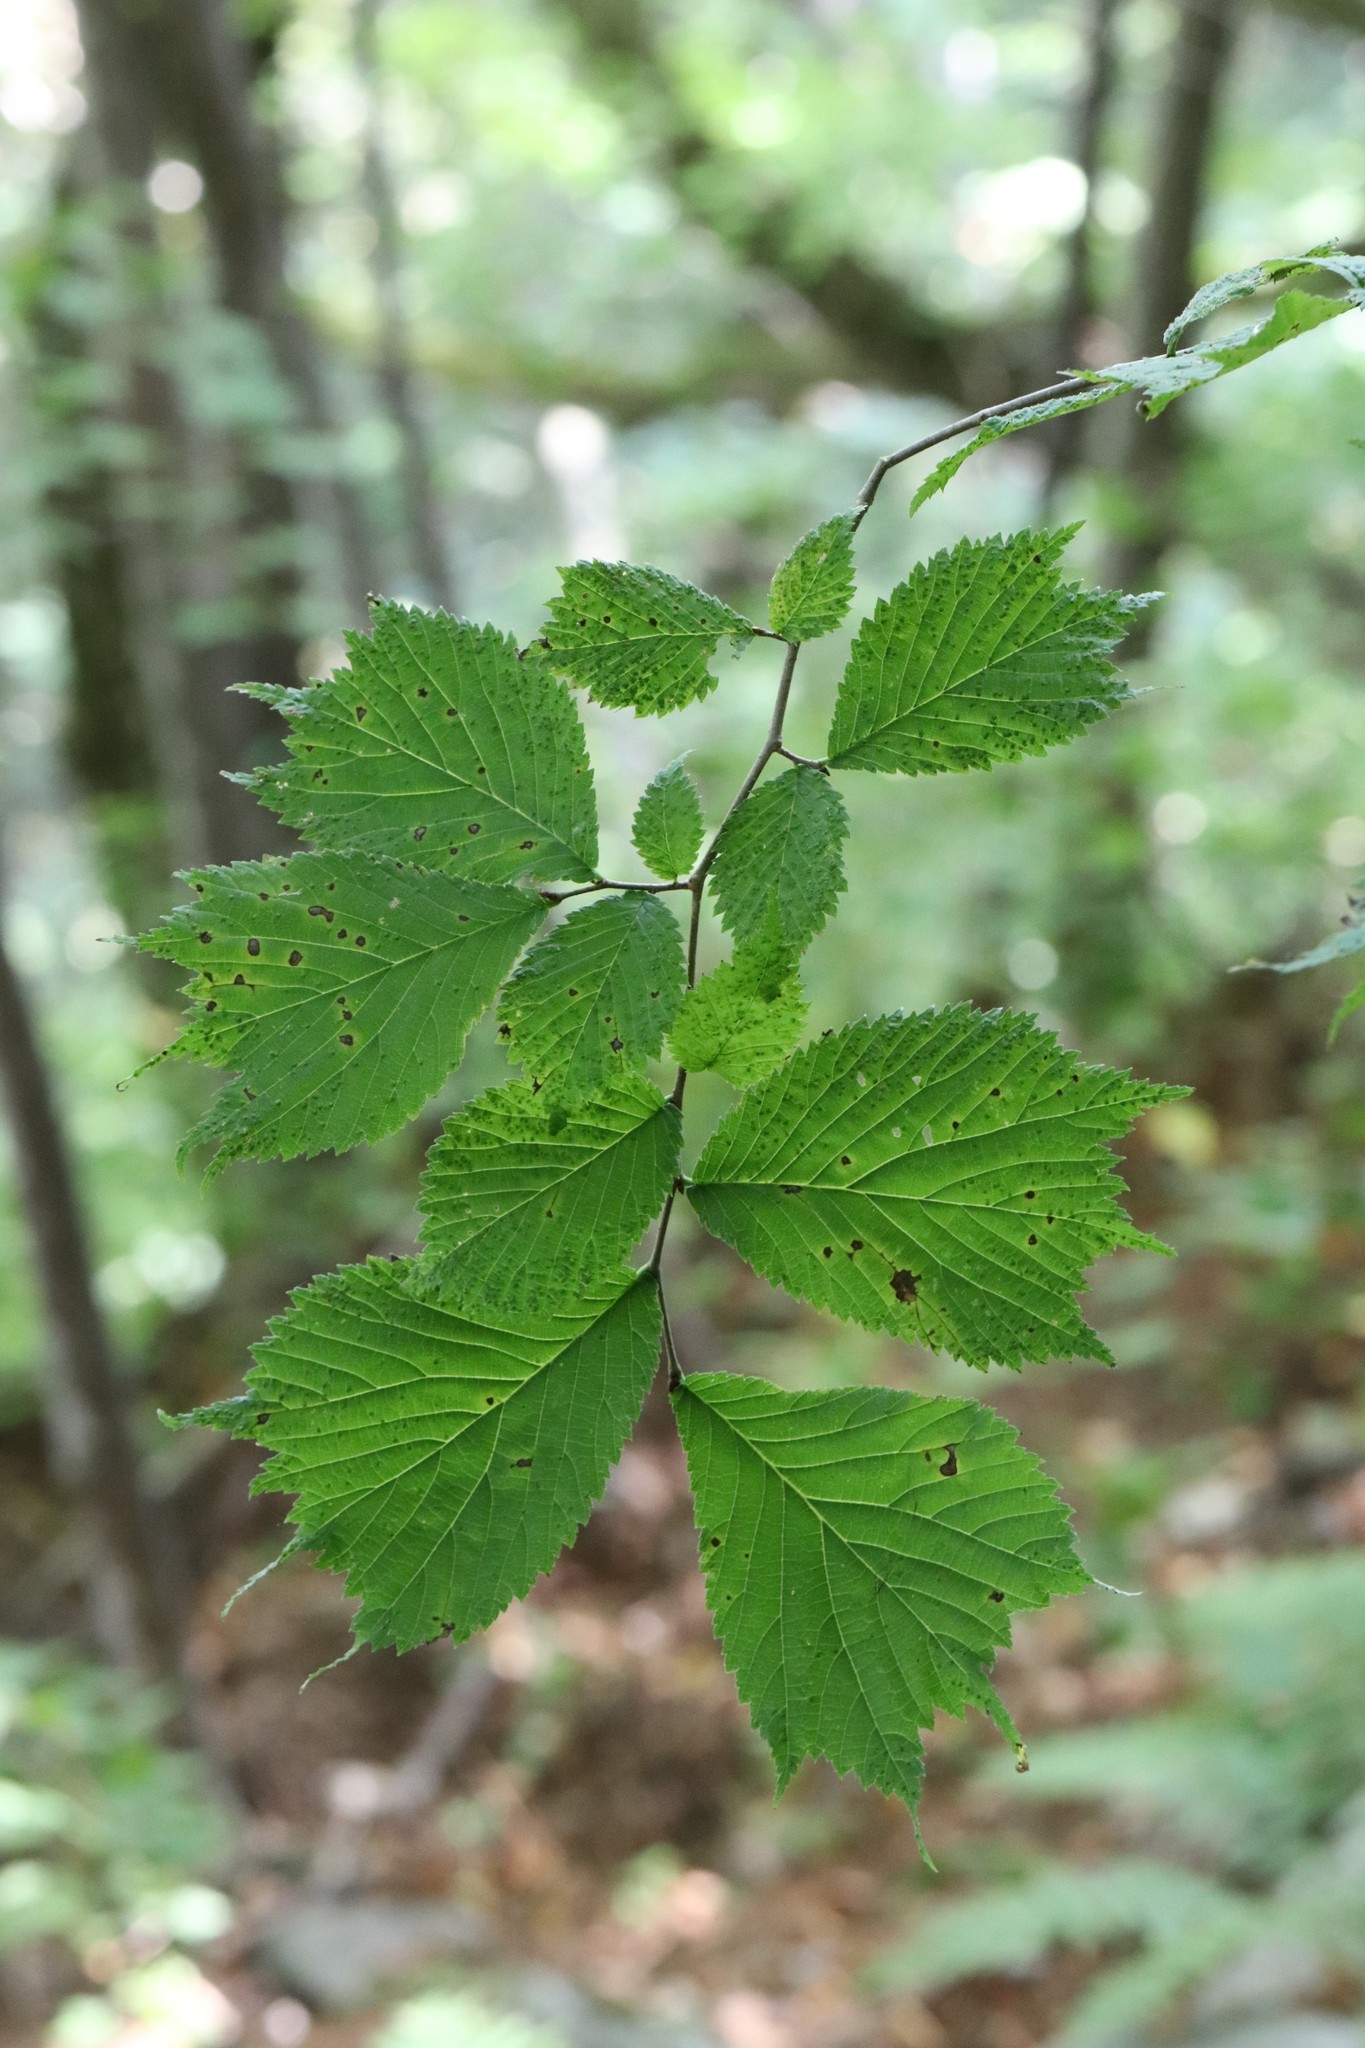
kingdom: Plantae
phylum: Tracheophyta
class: Magnoliopsida
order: Rosales
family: Ulmaceae
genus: Ulmus
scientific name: Ulmus laciniata
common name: Japanese elm
